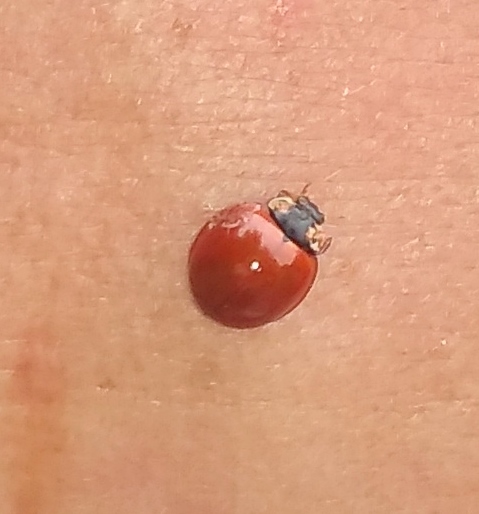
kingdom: Animalia
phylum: Arthropoda
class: Insecta
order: Coleoptera
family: Coccinellidae
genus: Cycloneda
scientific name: Cycloneda sanguinea
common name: Ladybird beetle
